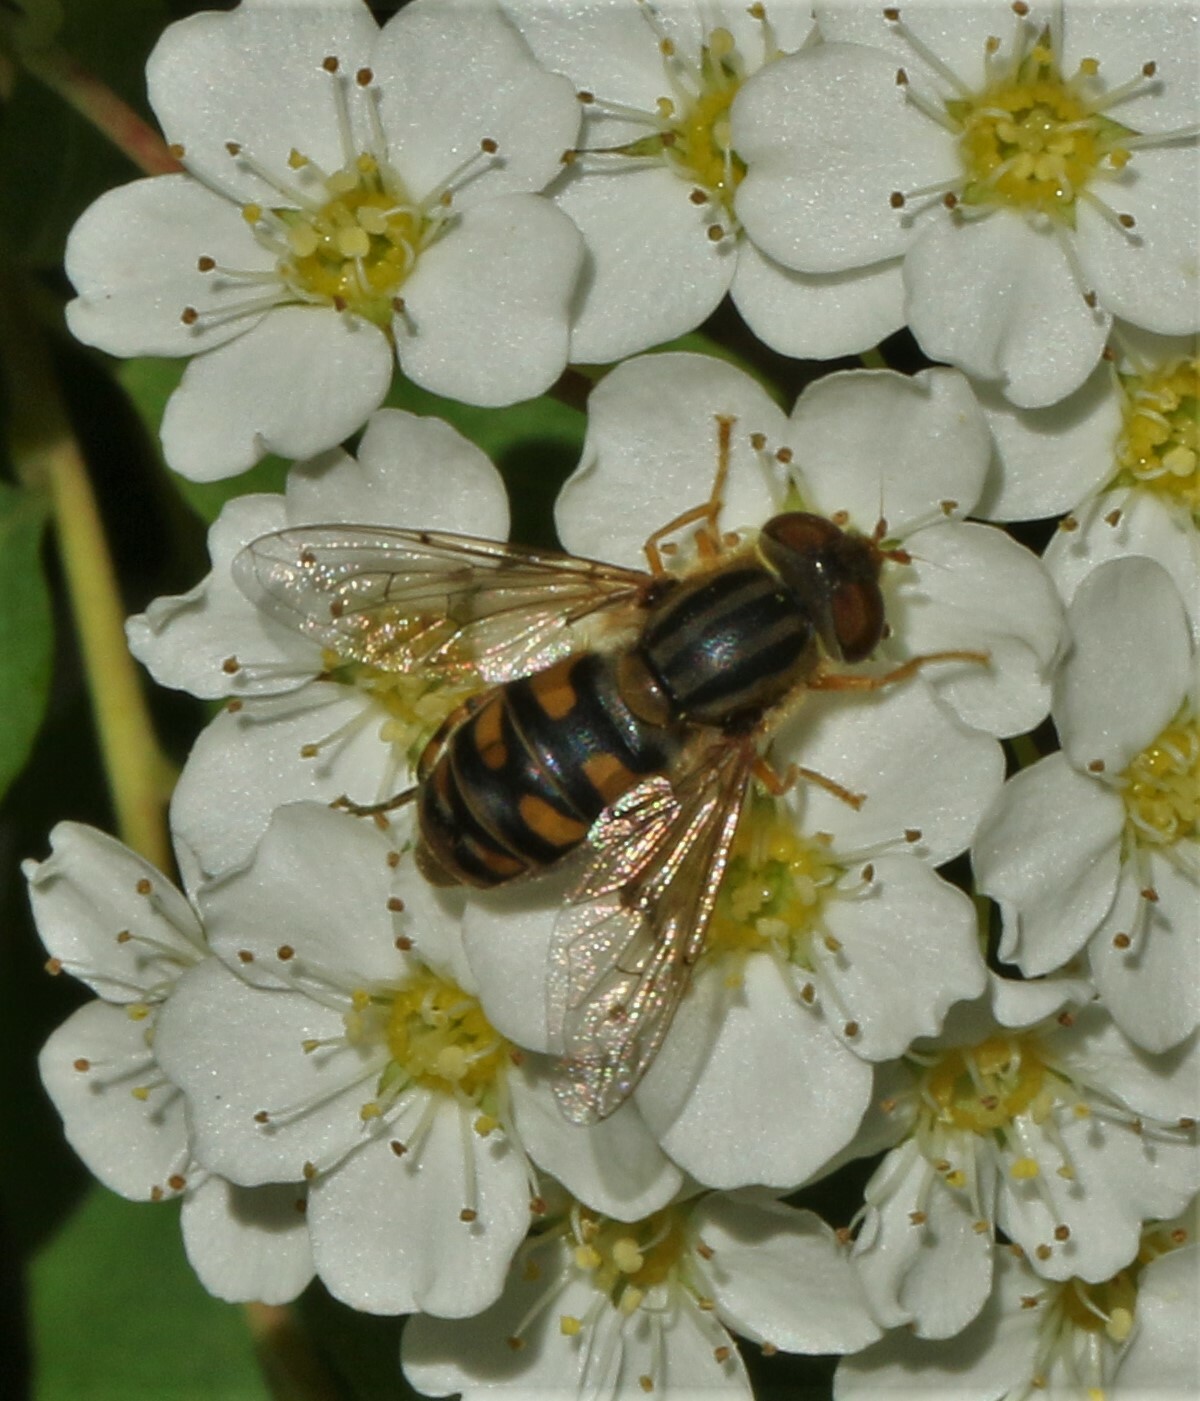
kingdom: Animalia
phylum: Arthropoda
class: Insecta
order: Diptera
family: Syrphidae
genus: Parhelophilus
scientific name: Parhelophilus laetus
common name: Common bog fly
